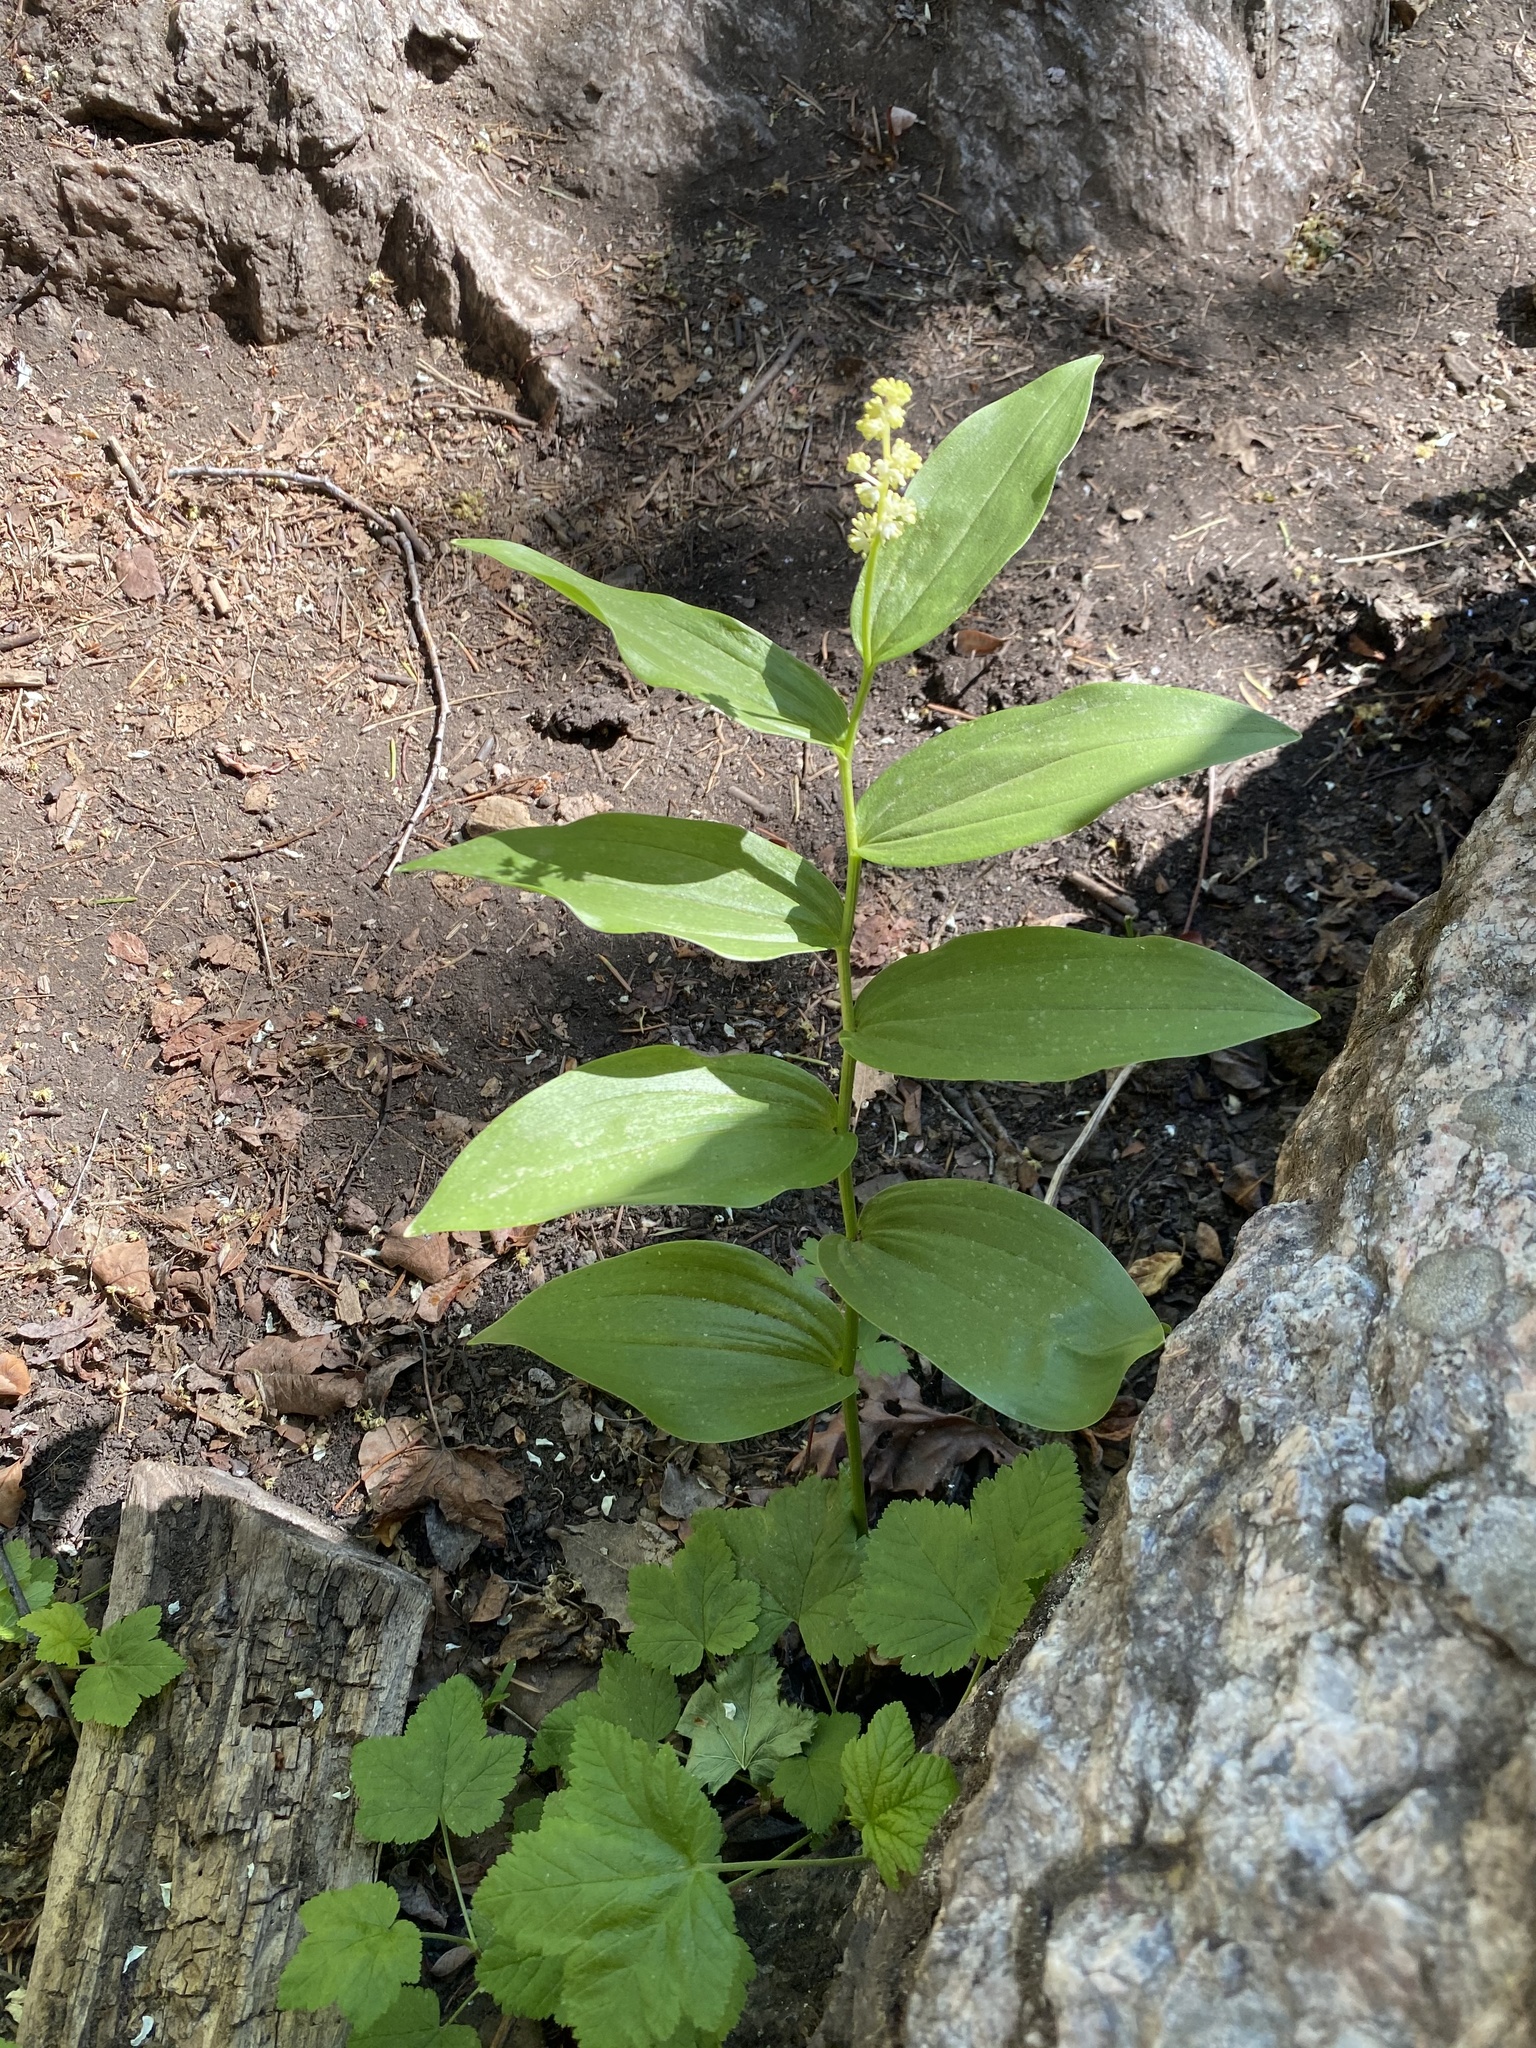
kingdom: Plantae
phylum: Tracheophyta
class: Liliopsida
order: Asparagales
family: Asparagaceae
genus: Maianthemum
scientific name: Maianthemum racemosum
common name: False spikenard
